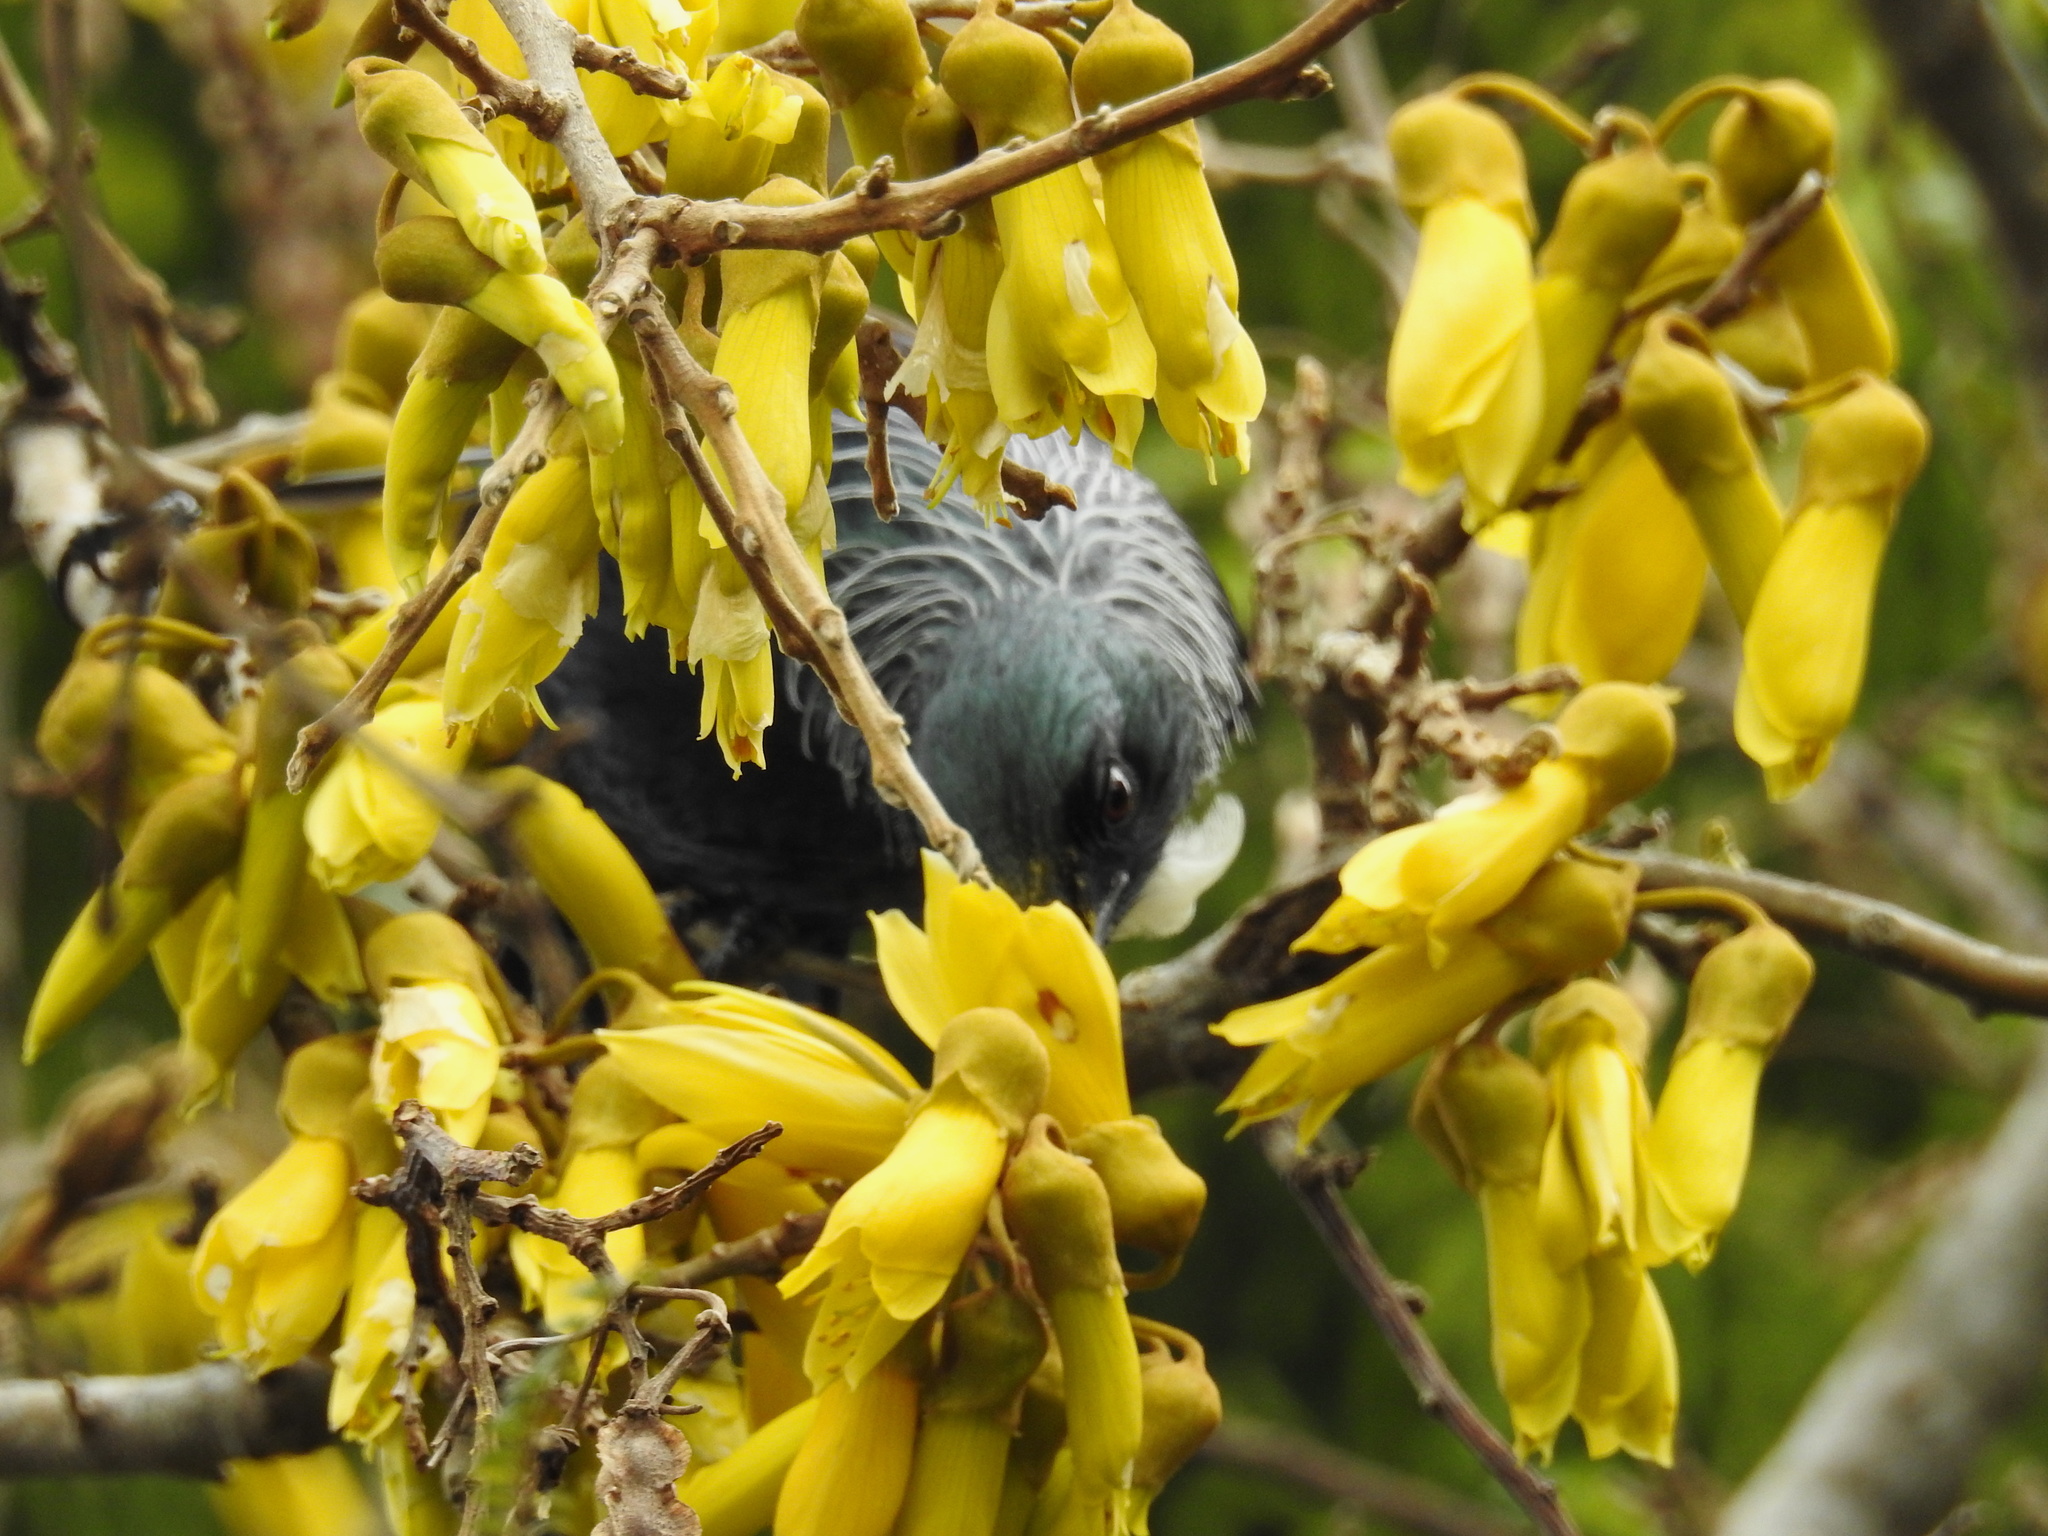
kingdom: Plantae
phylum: Tracheophyta
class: Magnoliopsida
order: Fabales
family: Fabaceae
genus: Sophora
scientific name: Sophora microphylla
